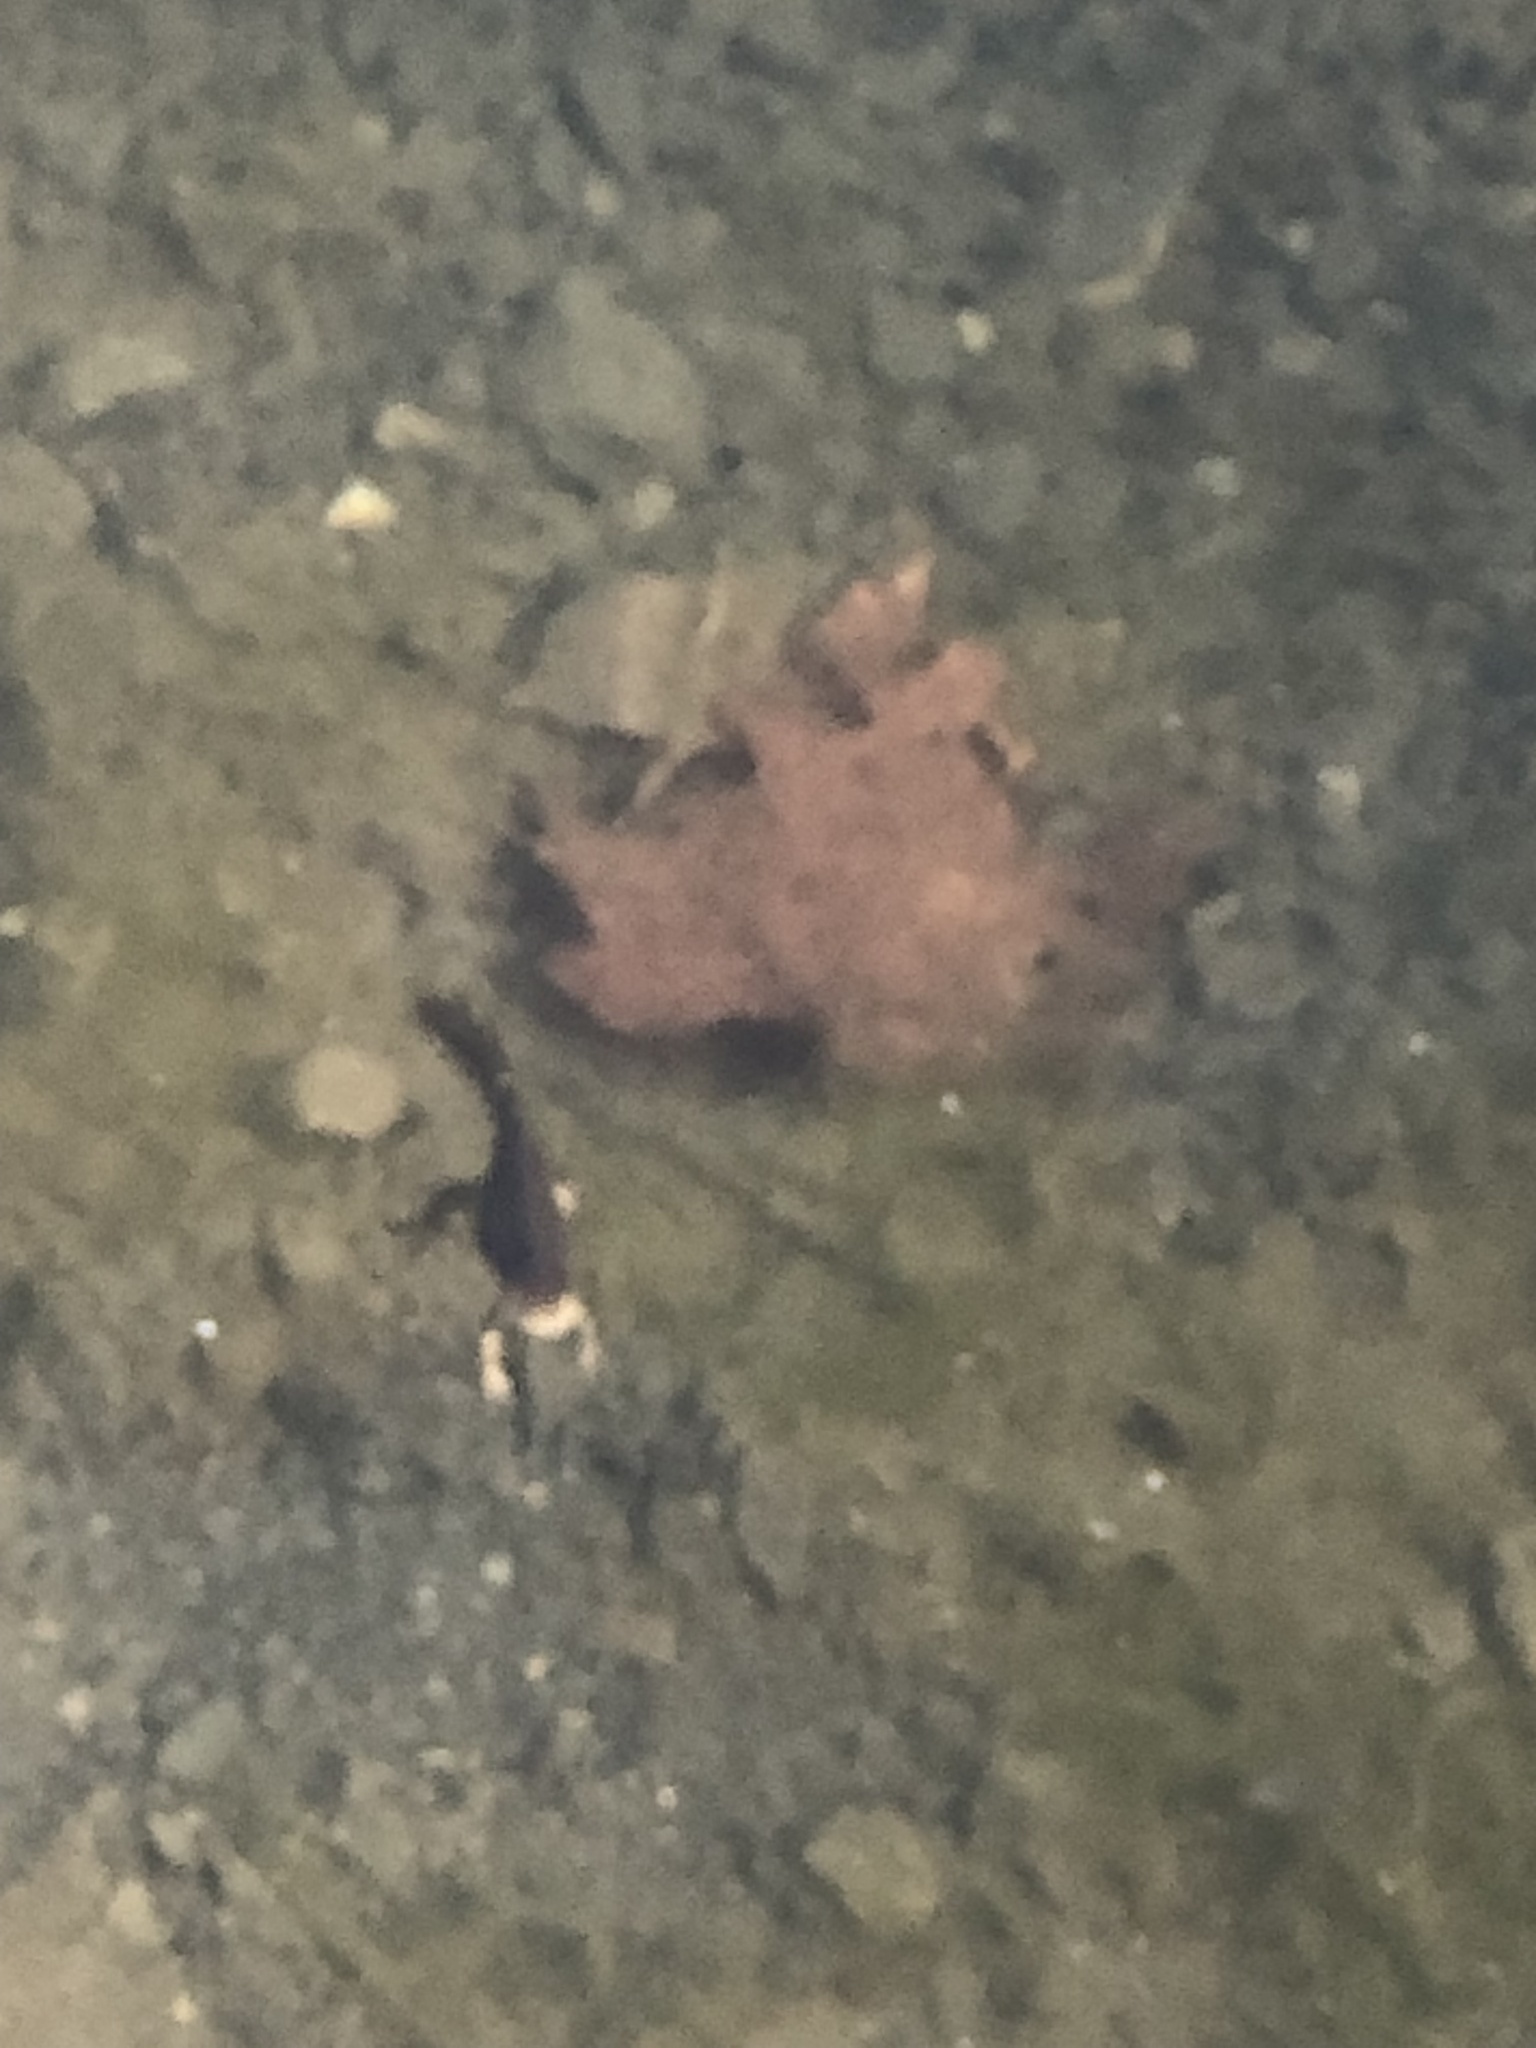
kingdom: Animalia
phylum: Chordata
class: Amphibia
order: Caudata
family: Salamandridae
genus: Notophthalmus
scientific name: Notophthalmus viridescens
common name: Eastern newt
